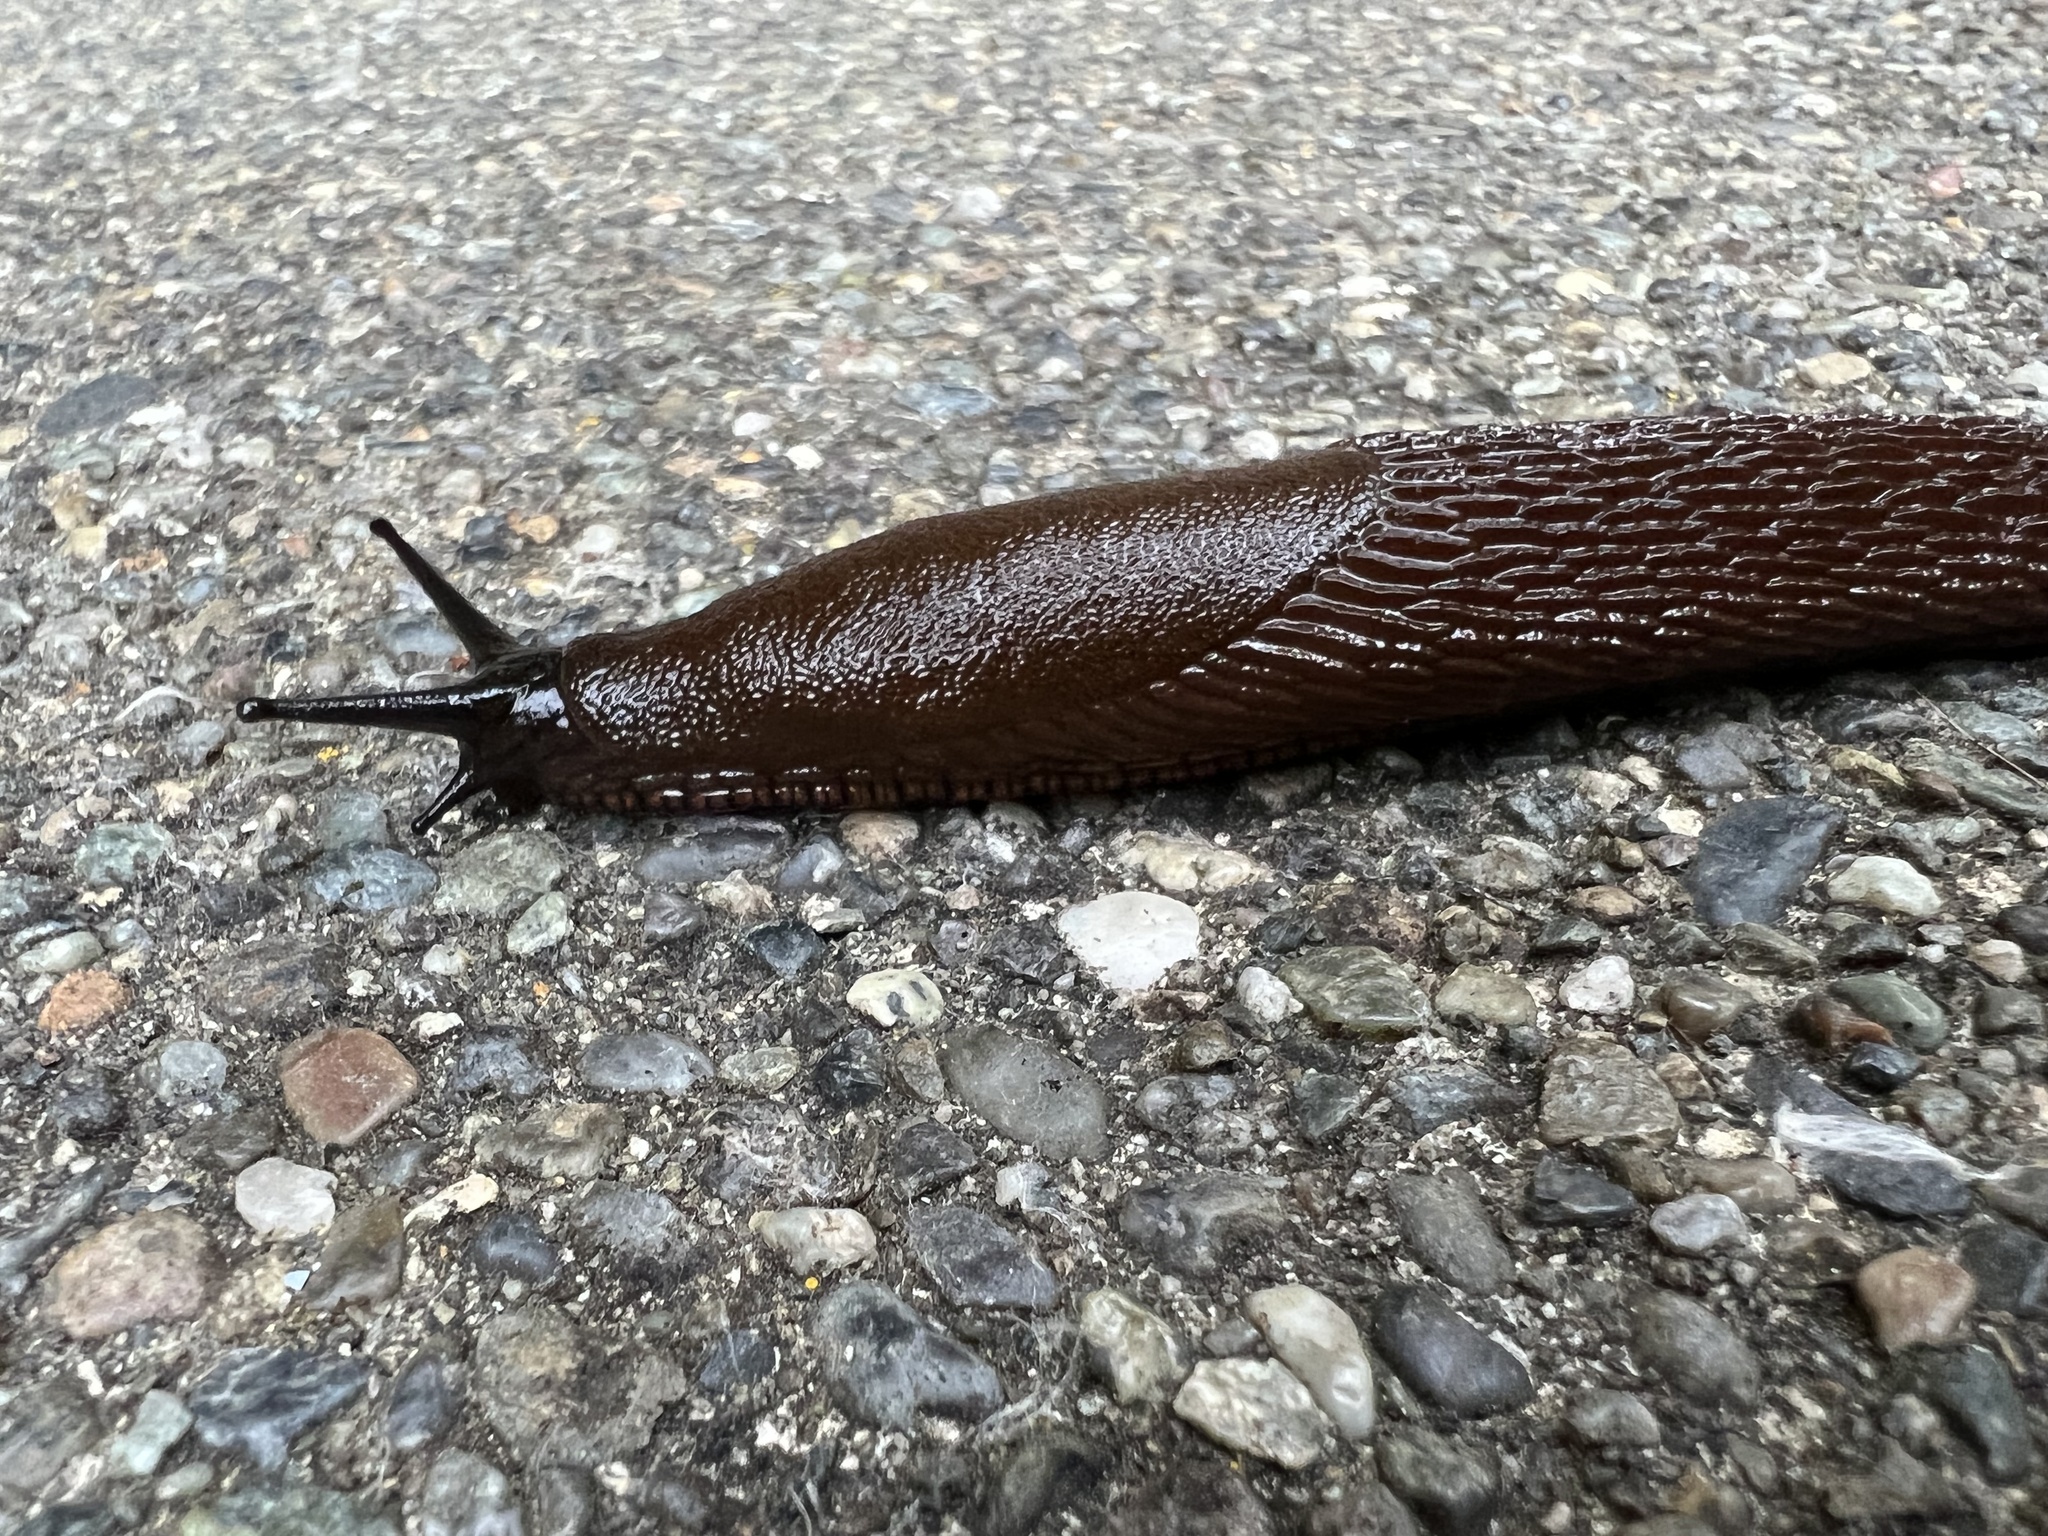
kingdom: Animalia
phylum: Mollusca
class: Gastropoda
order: Stylommatophora
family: Arionidae
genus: Arion
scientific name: Arion
